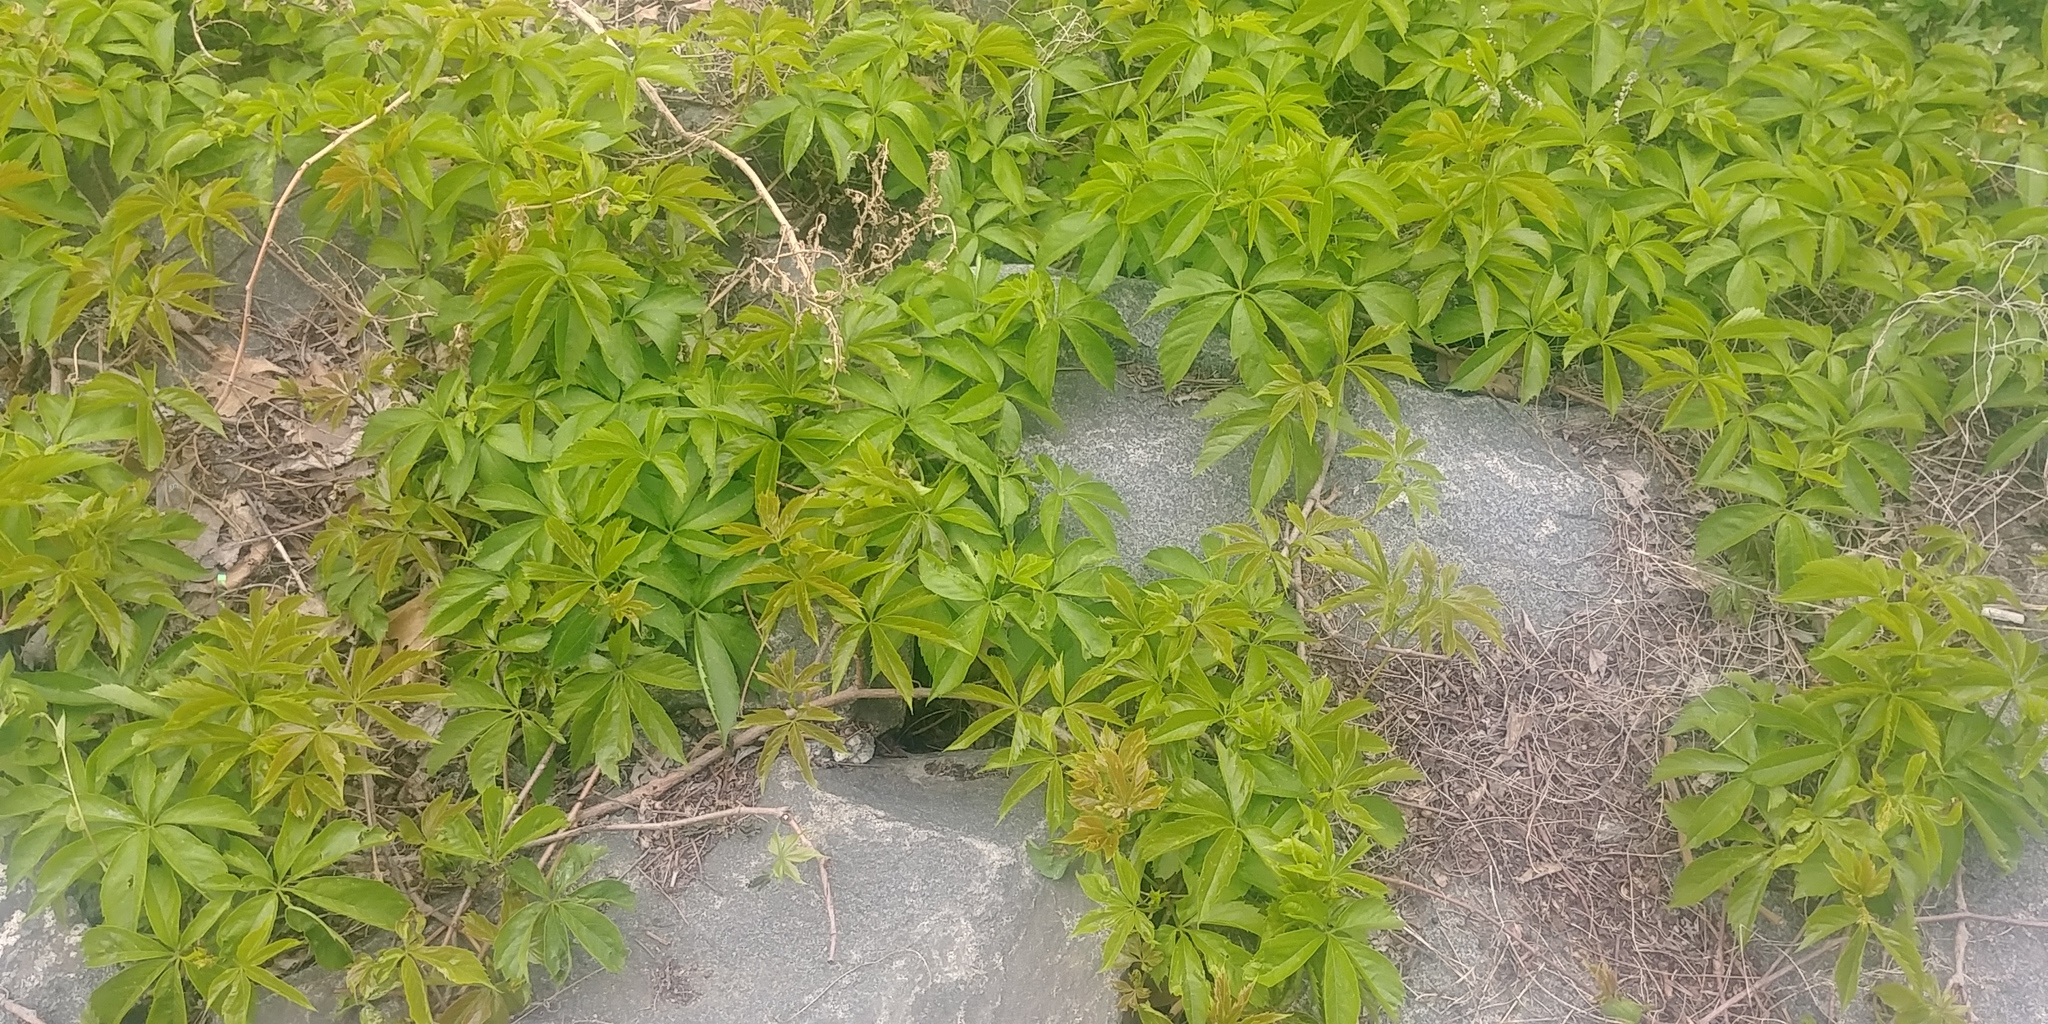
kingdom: Plantae
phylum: Tracheophyta
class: Magnoliopsida
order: Vitales
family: Vitaceae
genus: Parthenocissus
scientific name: Parthenocissus quinquefolia
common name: Virginia-creeper
